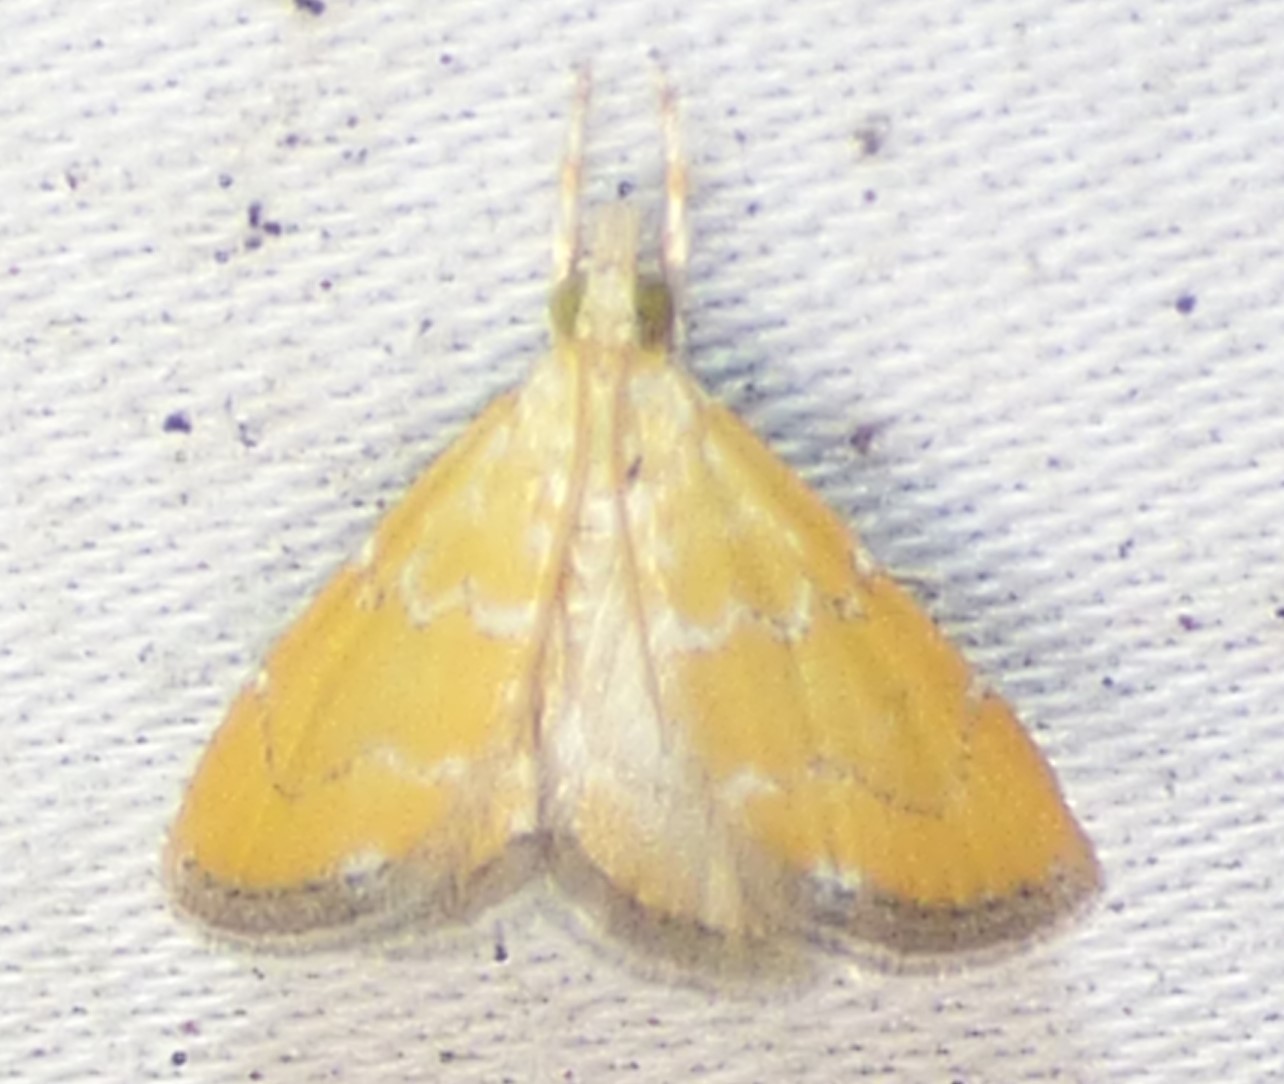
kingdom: Animalia
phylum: Arthropoda
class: Insecta
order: Lepidoptera
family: Crambidae
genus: Xanthophysa
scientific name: Xanthophysa psychicalis
